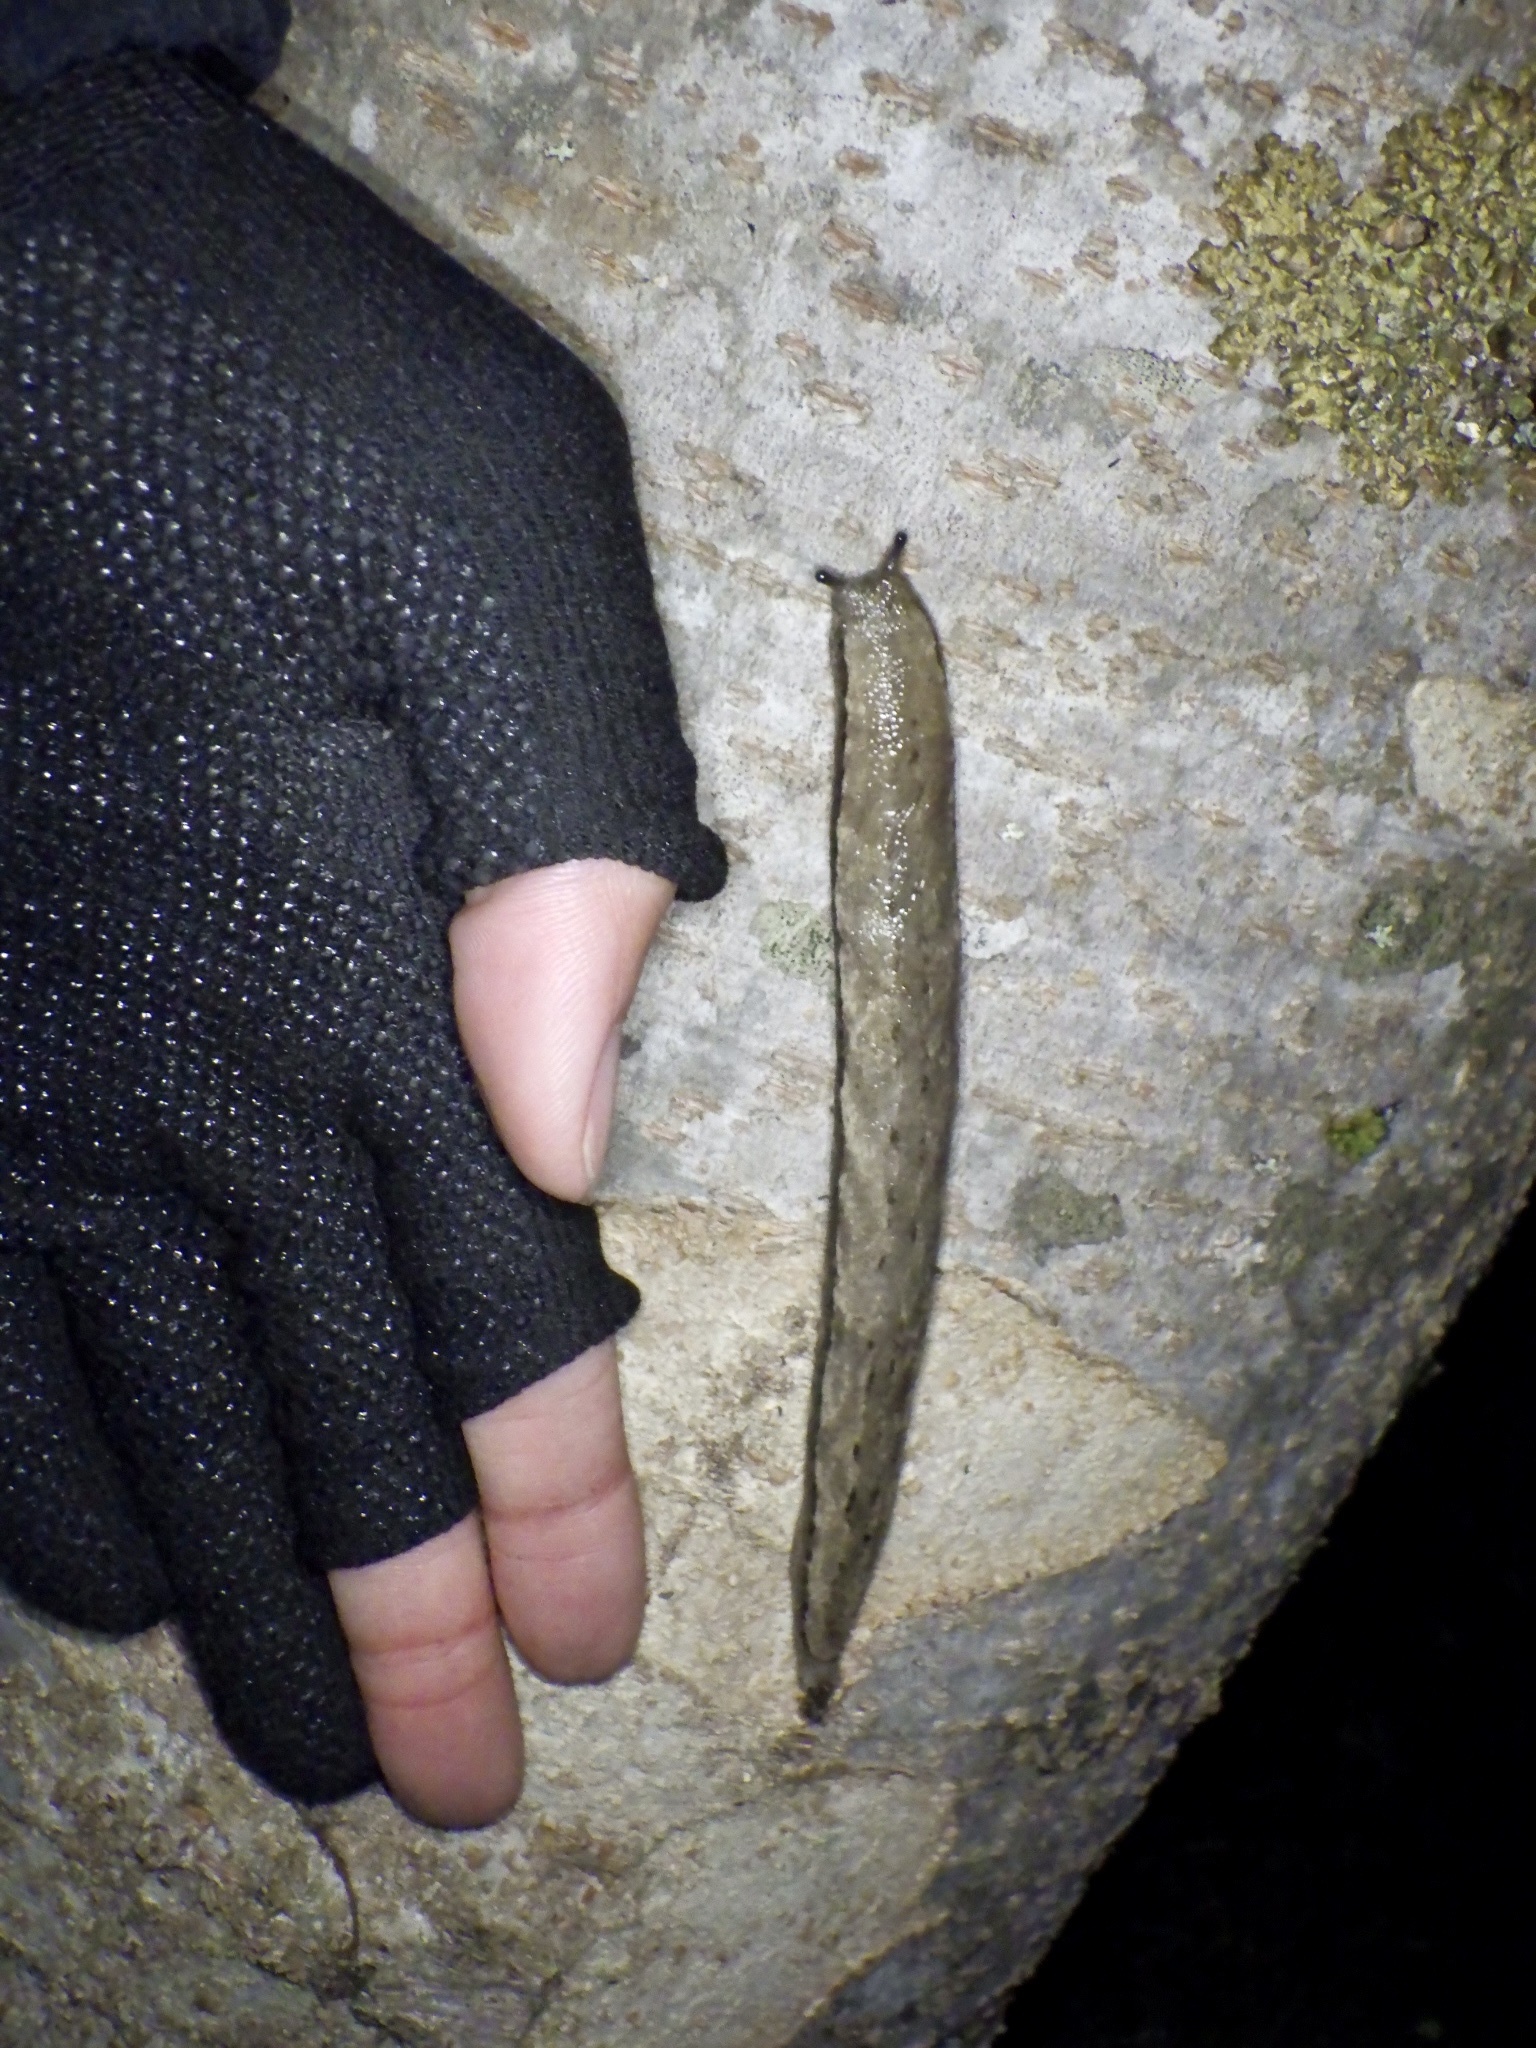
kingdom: Animalia
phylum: Mollusca
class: Gastropoda
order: Stylommatophora
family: Philomycidae
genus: Meghimatium
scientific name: Meghimatium fruhstorferi
